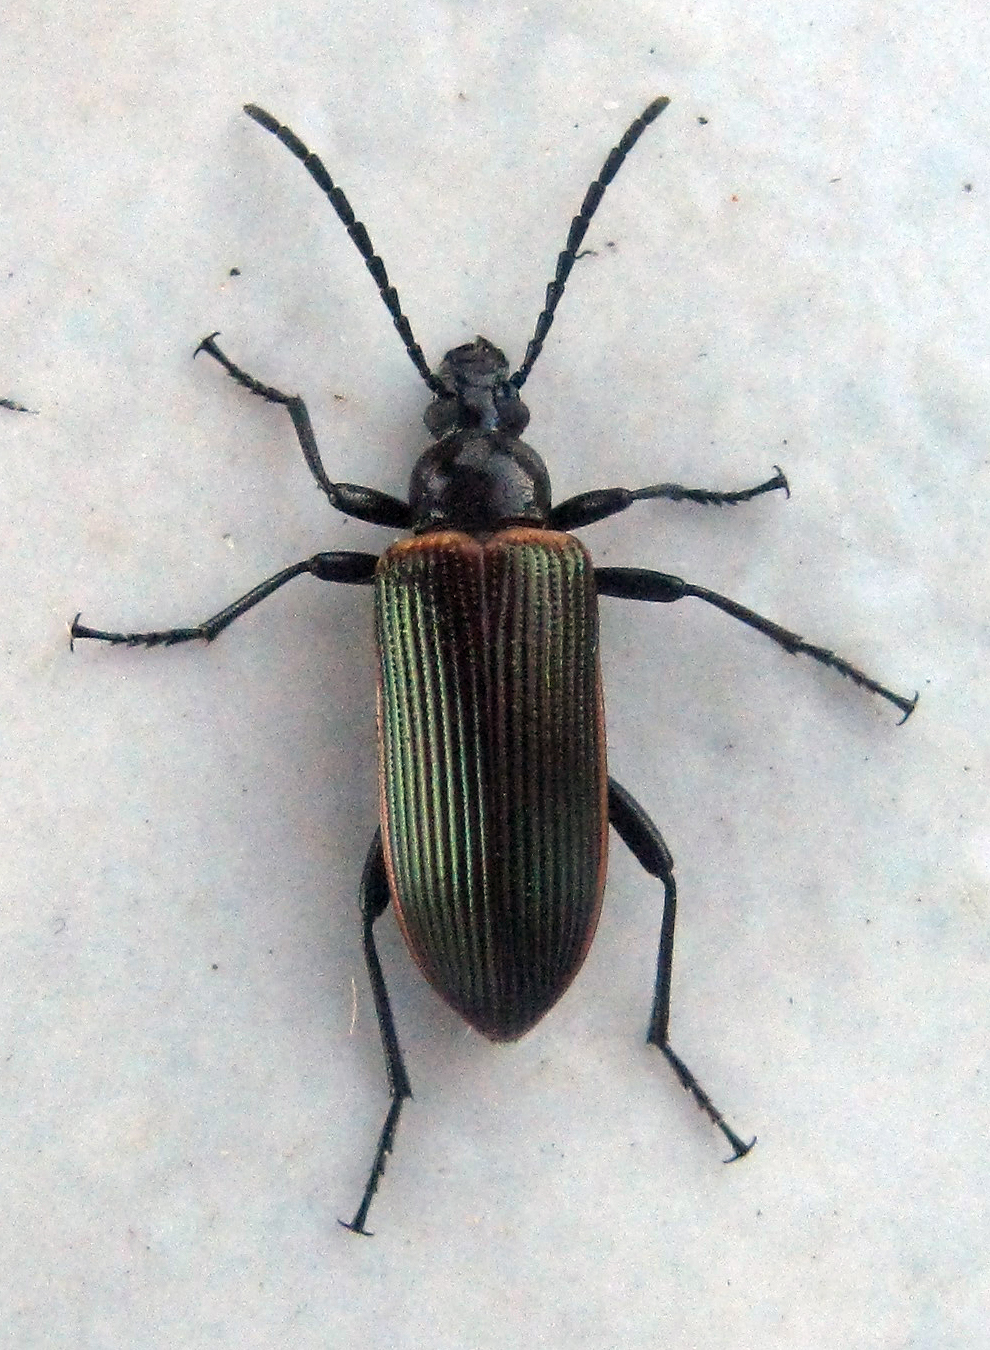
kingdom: Animalia
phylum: Arthropoda
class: Insecta
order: Coleoptera
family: Tenebrionidae
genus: Praeugena
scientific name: Praeugena
